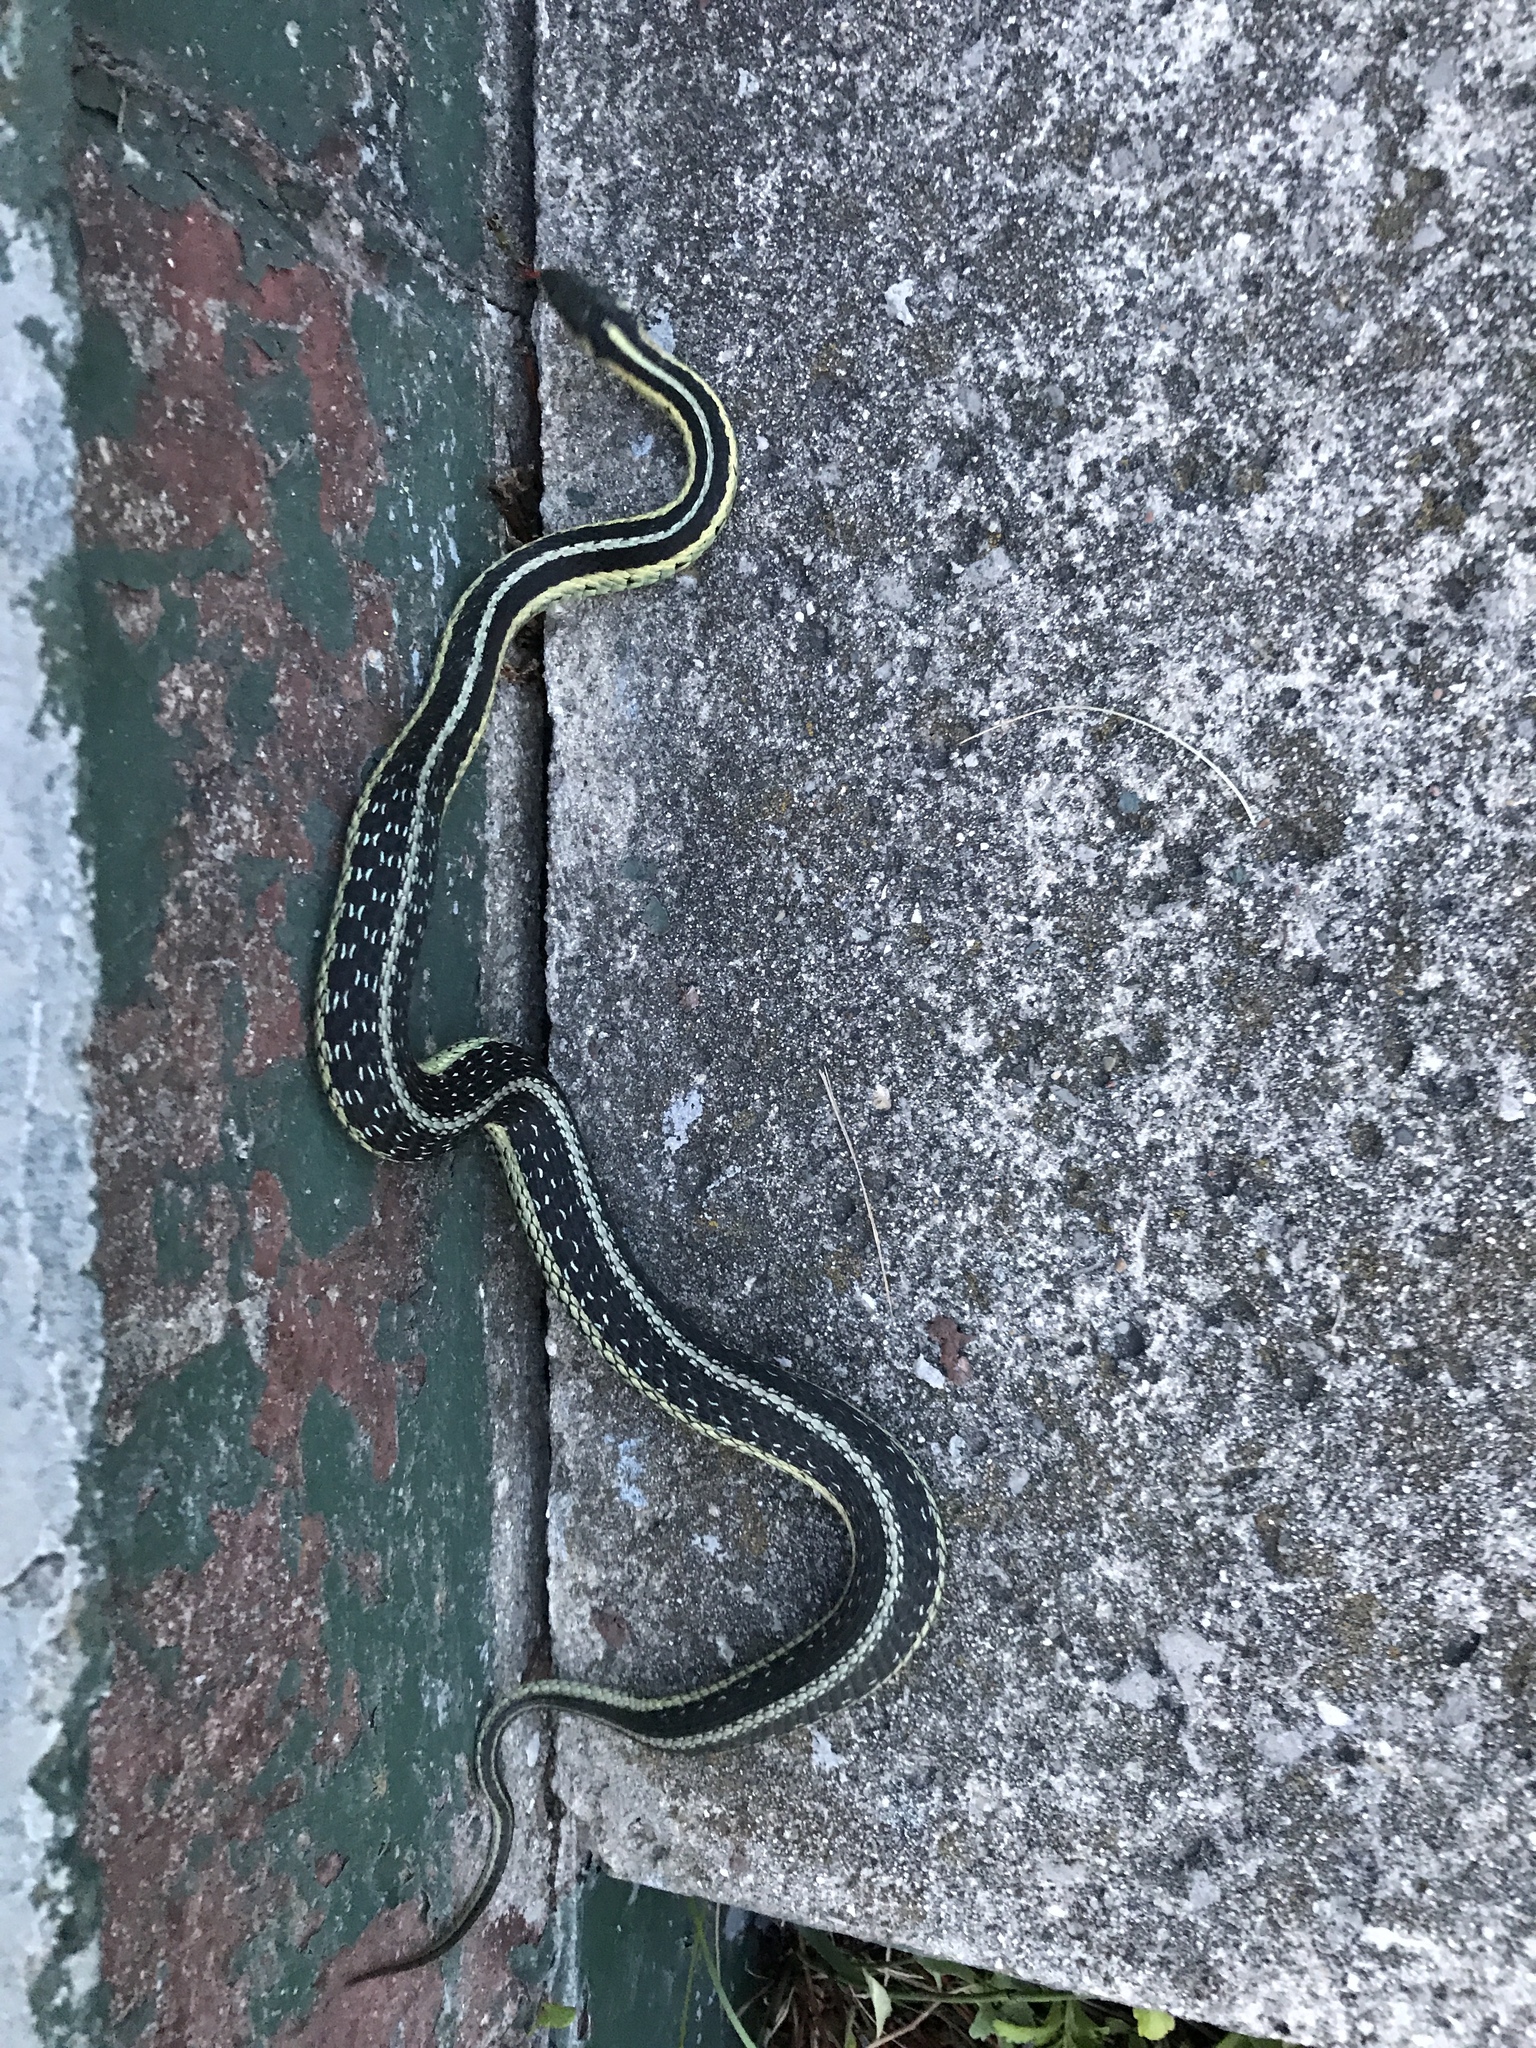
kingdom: Animalia
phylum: Chordata
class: Squamata
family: Colubridae
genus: Thamnophis
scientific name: Thamnophis sirtalis
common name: Common garter snake
